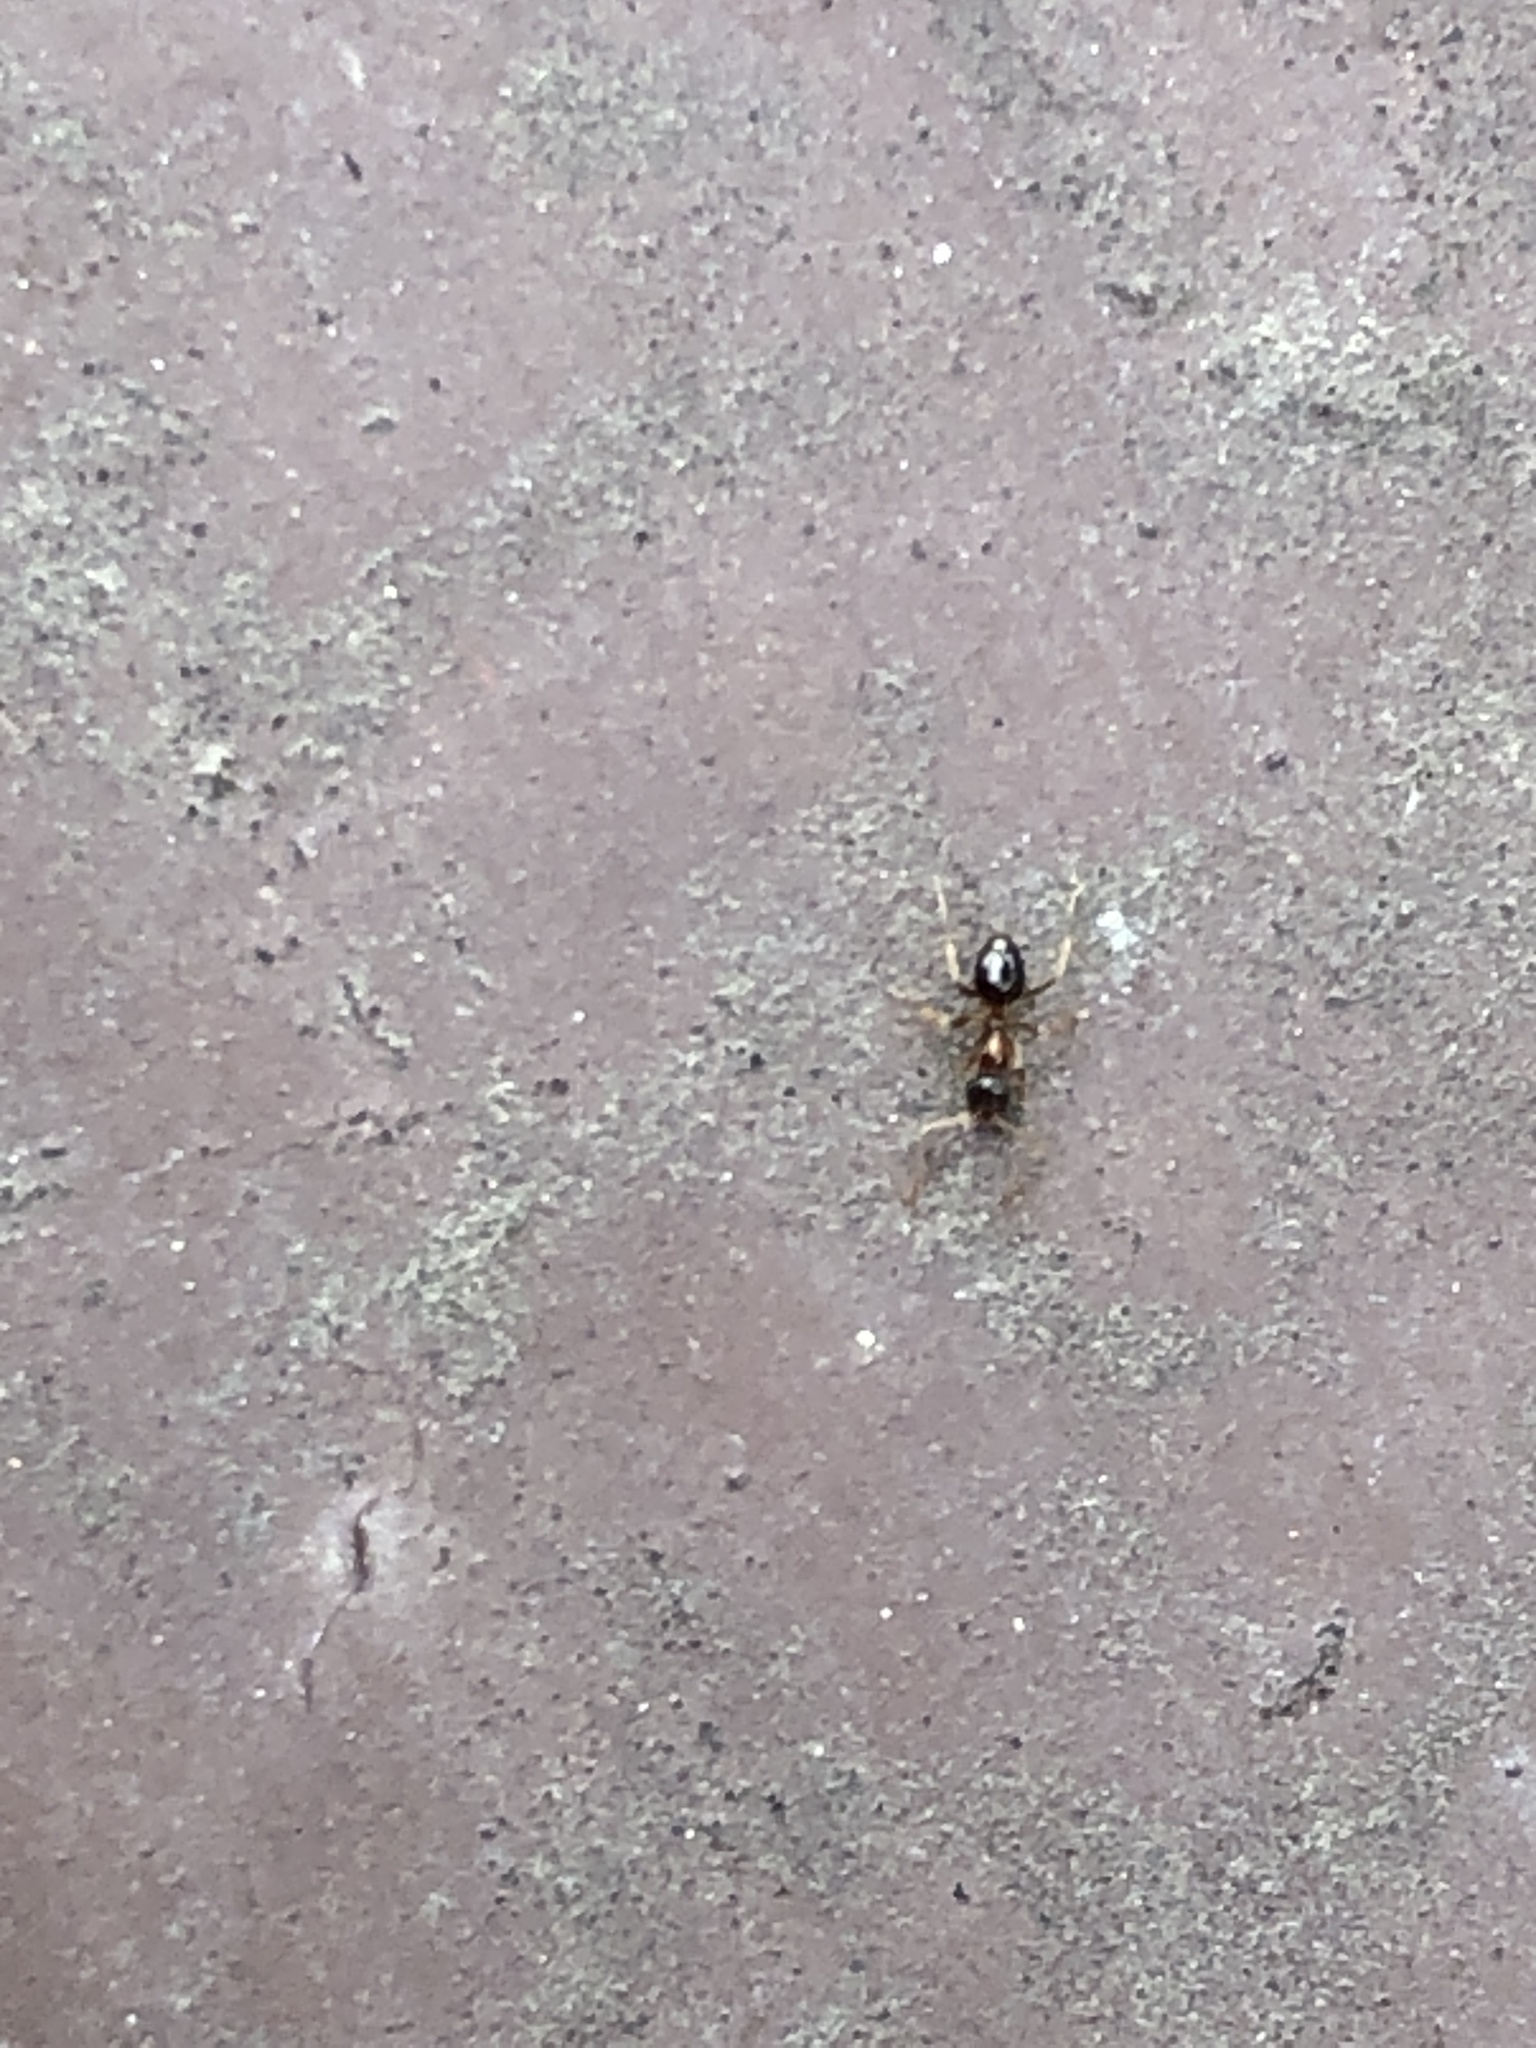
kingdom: Animalia
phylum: Arthropoda
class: Insecta
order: Hymenoptera
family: Formicidae
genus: Paratrechina
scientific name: Paratrechina flavipes
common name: Eastern asian formicine ant
